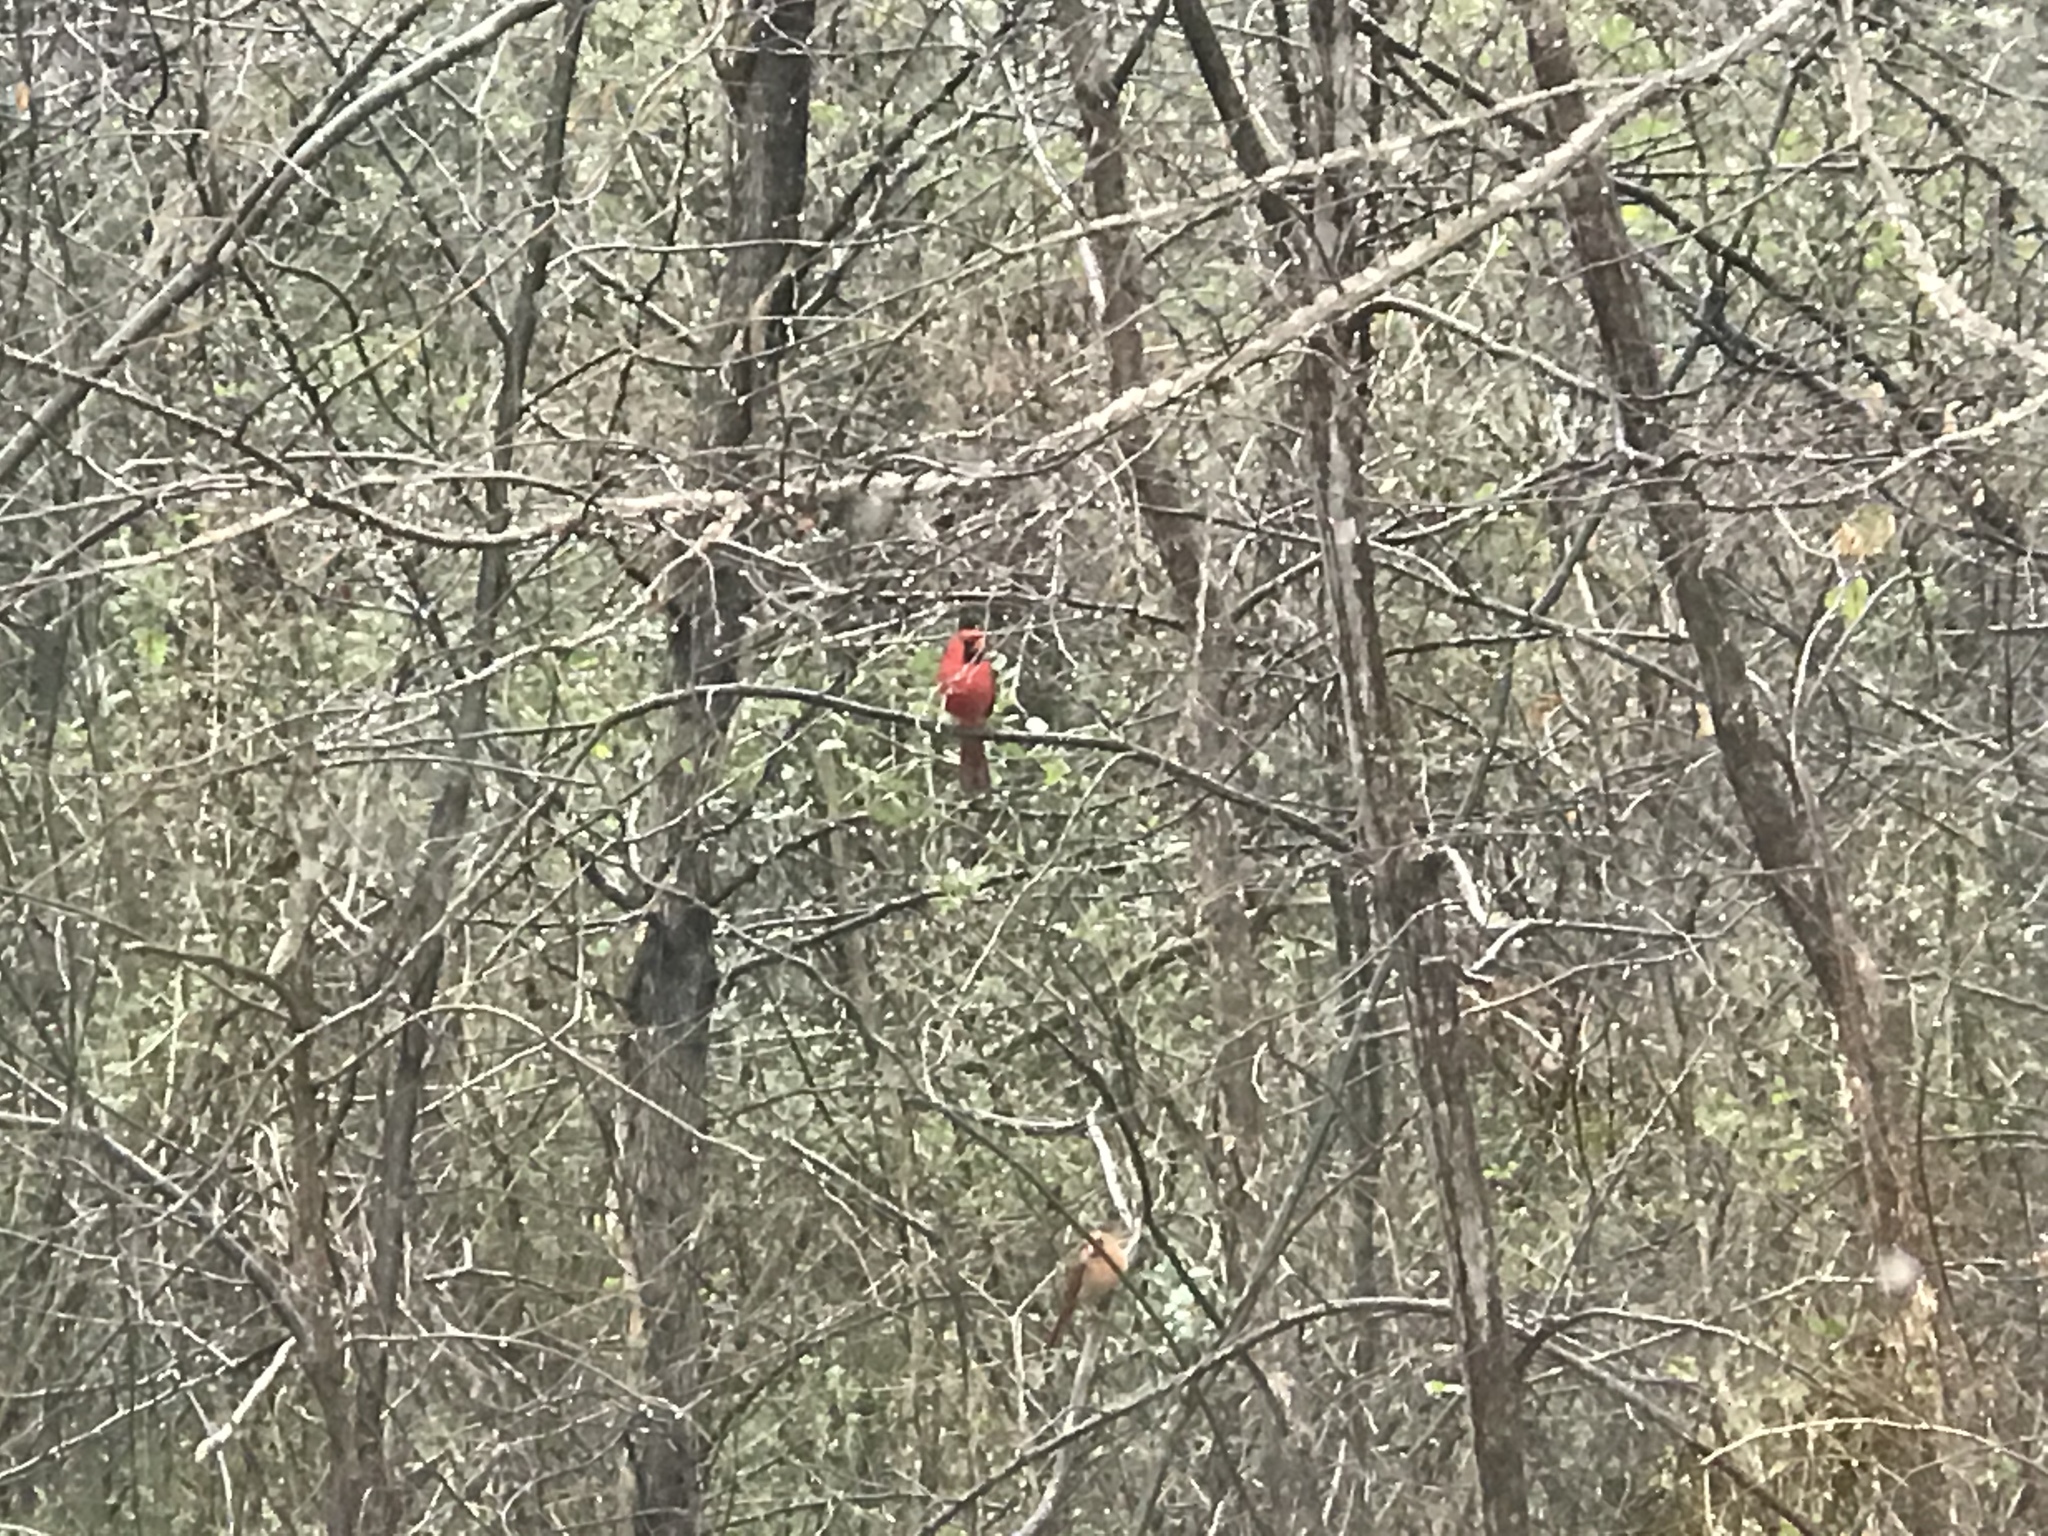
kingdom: Animalia
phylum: Chordata
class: Aves
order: Passeriformes
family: Cardinalidae
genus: Cardinalis
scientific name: Cardinalis cardinalis
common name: Northern cardinal
